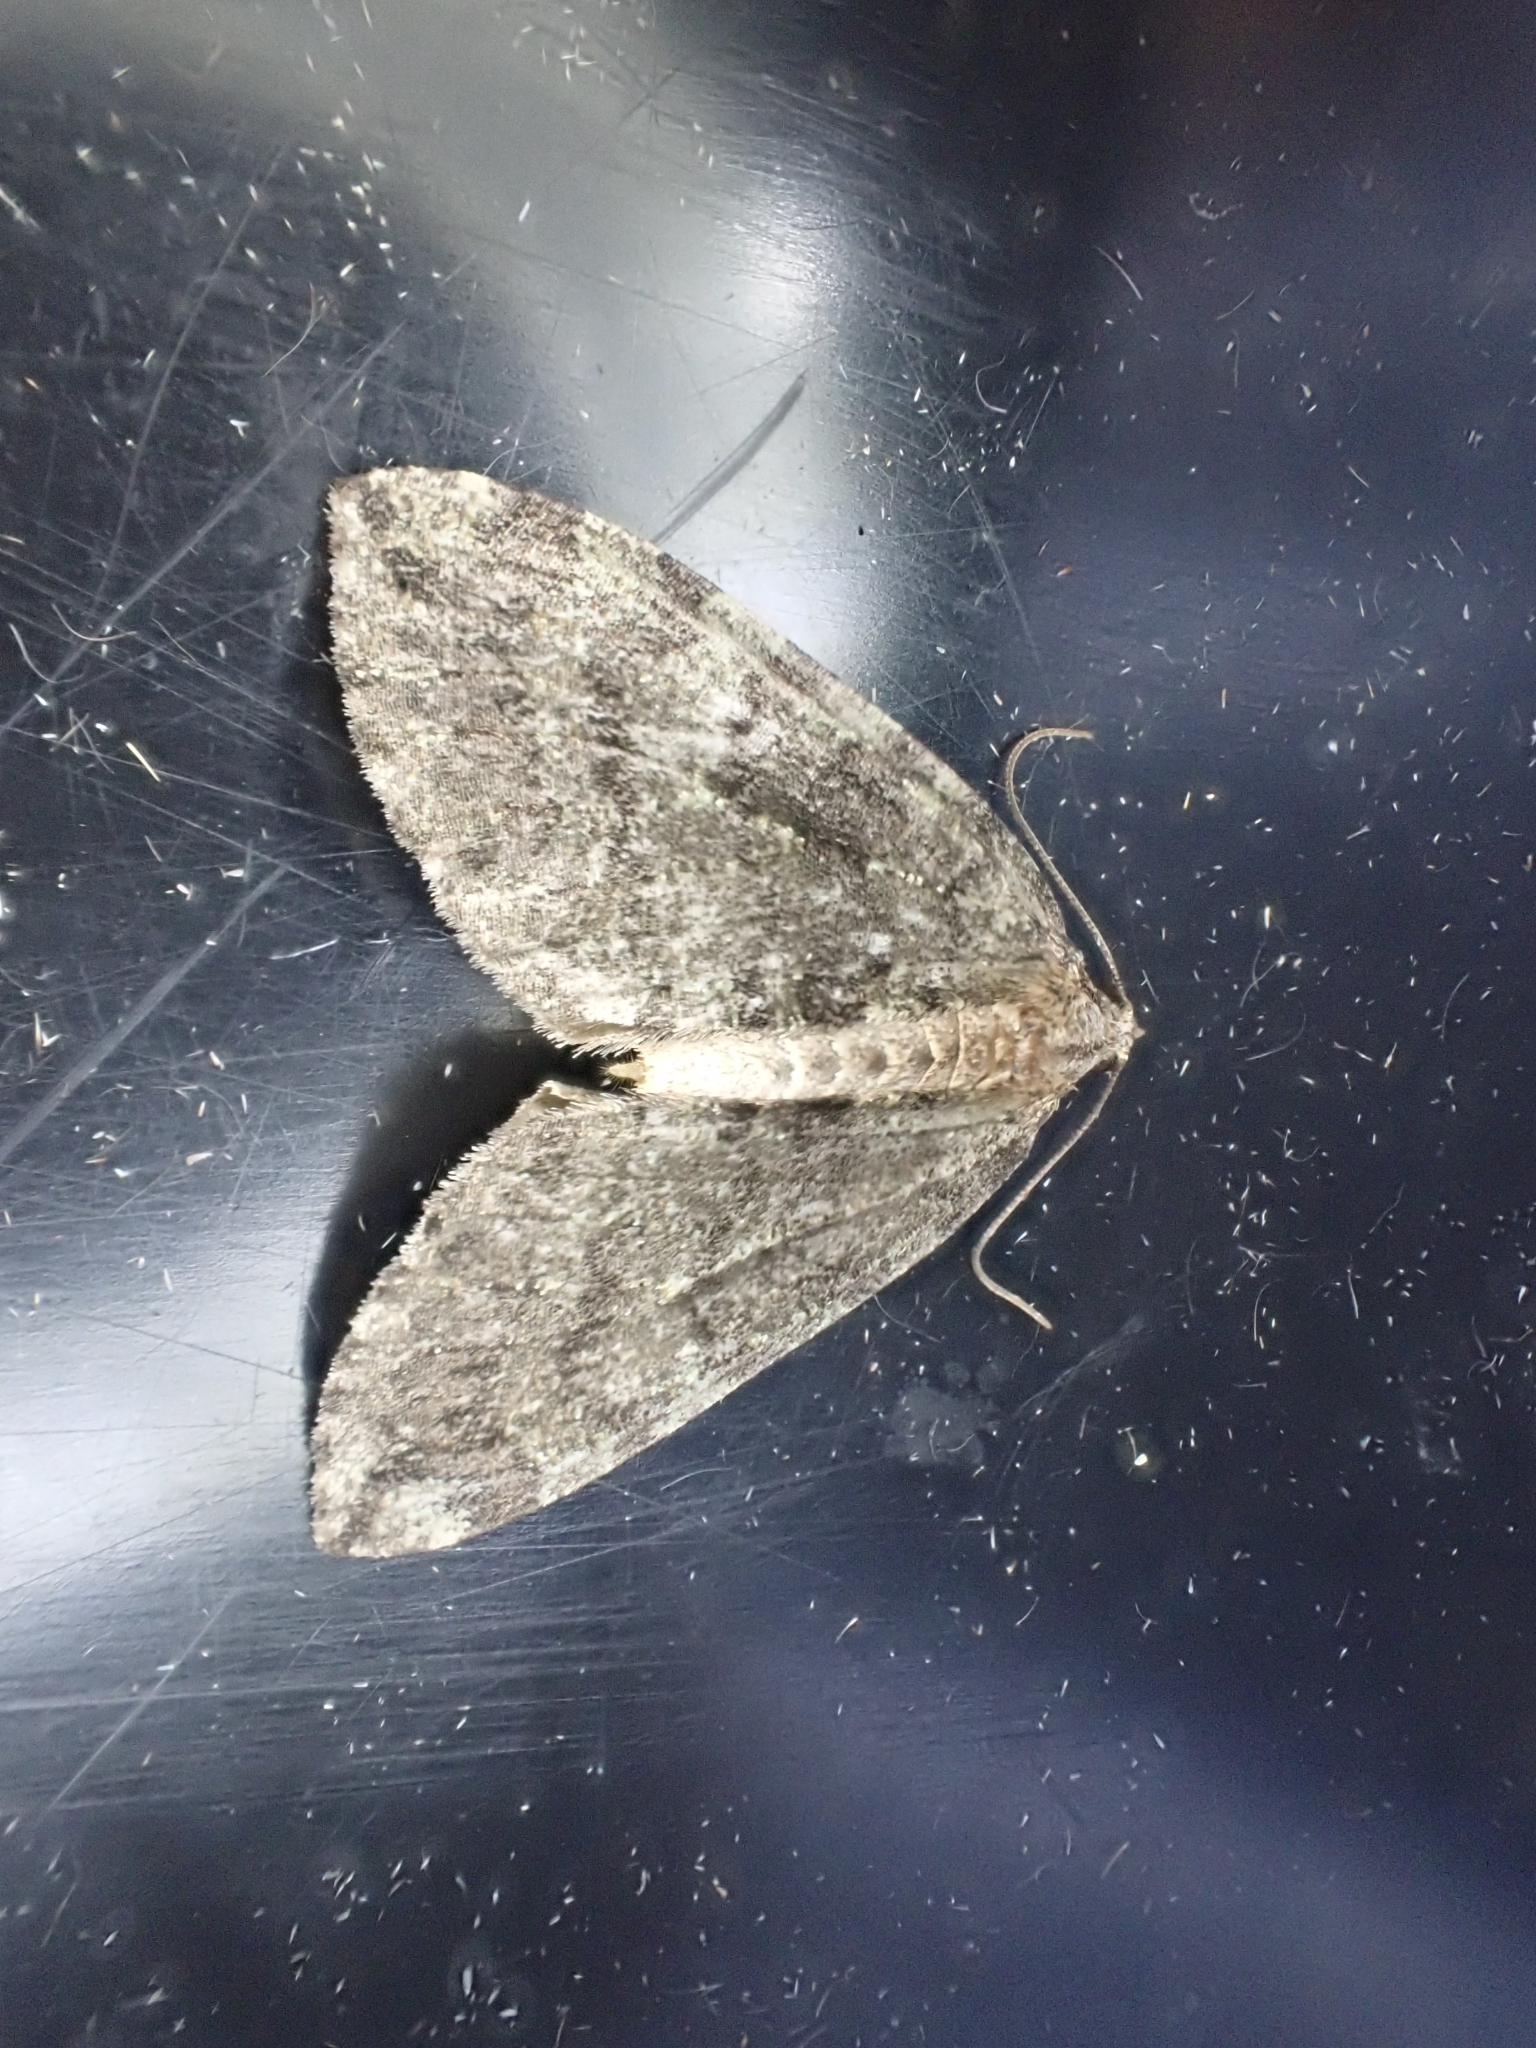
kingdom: Animalia
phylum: Arthropoda
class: Insecta
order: Lepidoptera
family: Geometridae
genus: Hydriomena
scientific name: Hydriomena furcata
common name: July highflyer
